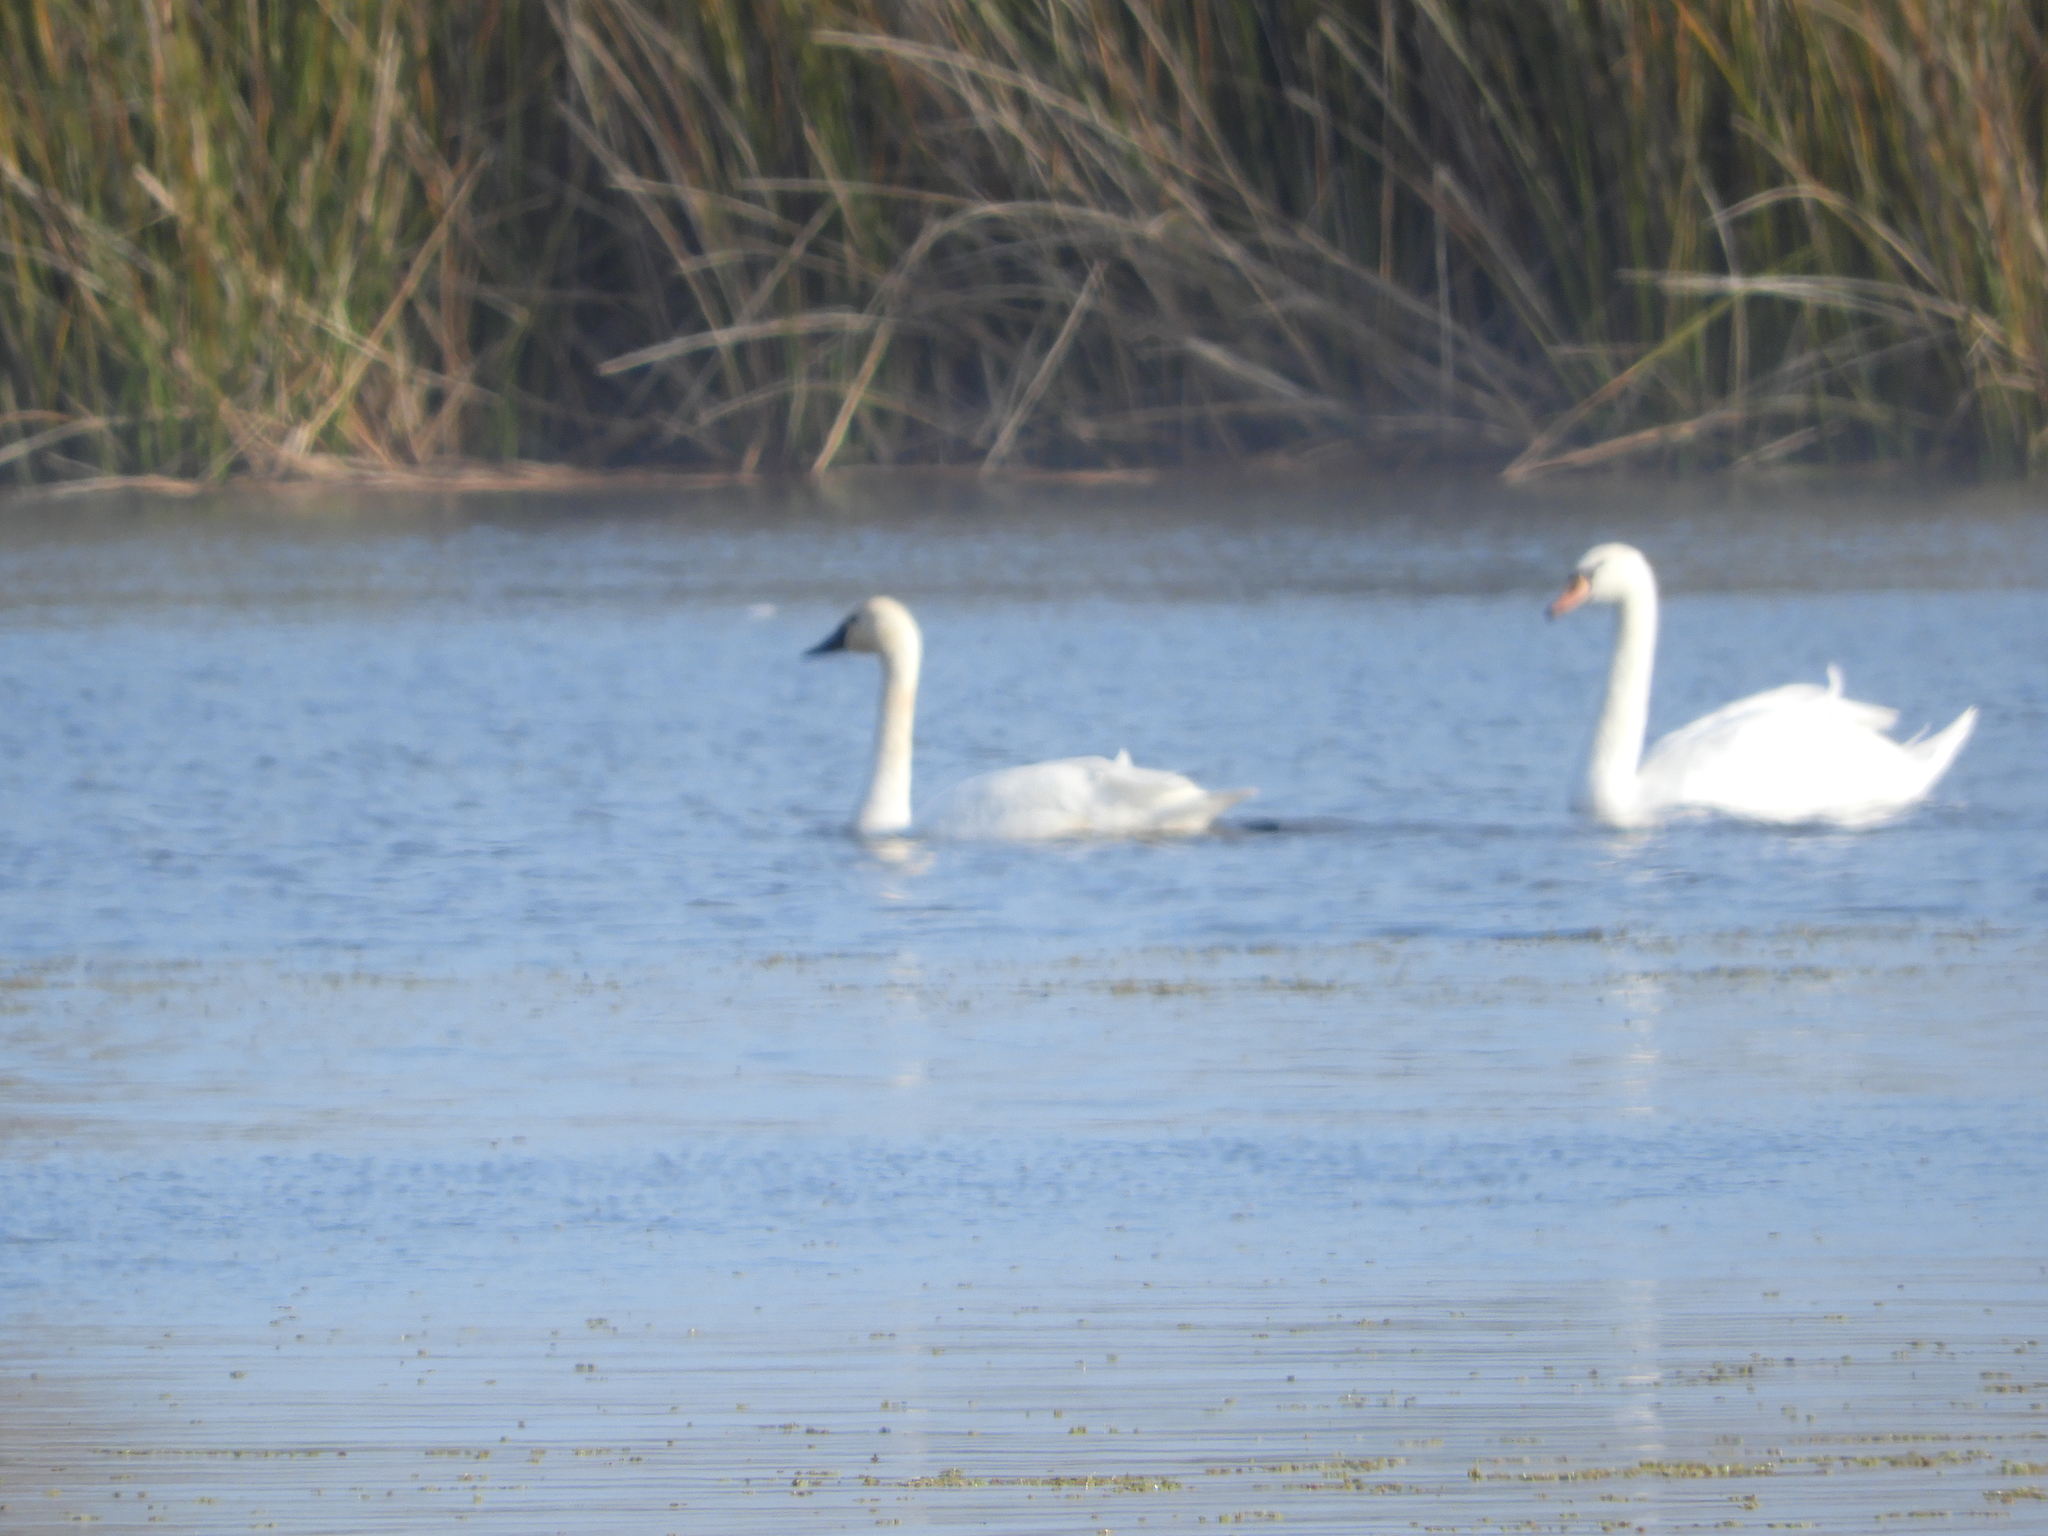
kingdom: Animalia
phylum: Chordata
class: Aves
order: Anseriformes
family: Anatidae
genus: Cygnus
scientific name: Cygnus columbianus
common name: Tundra swan
